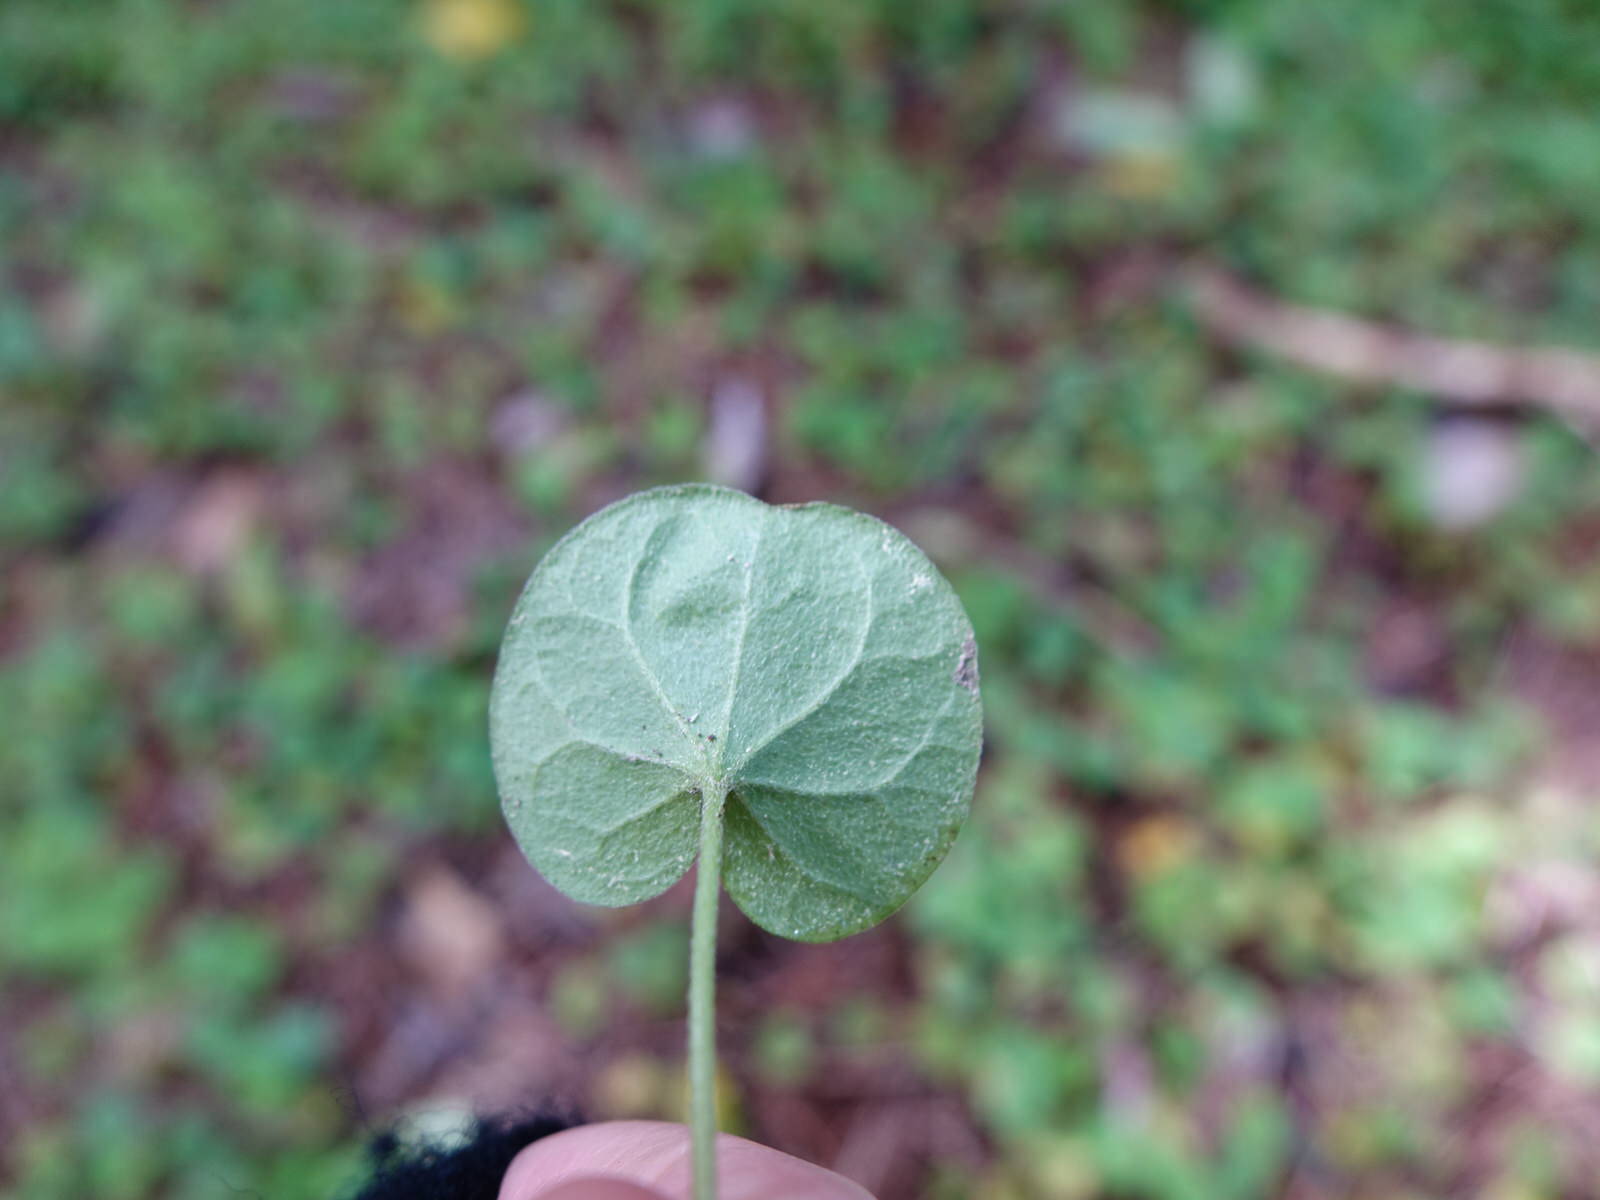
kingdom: Plantae
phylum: Tracheophyta
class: Magnoliopsida
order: Solanales
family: Convolvulaceae
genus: Dichondra
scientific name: Dichondra repens
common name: Kidneyweed
